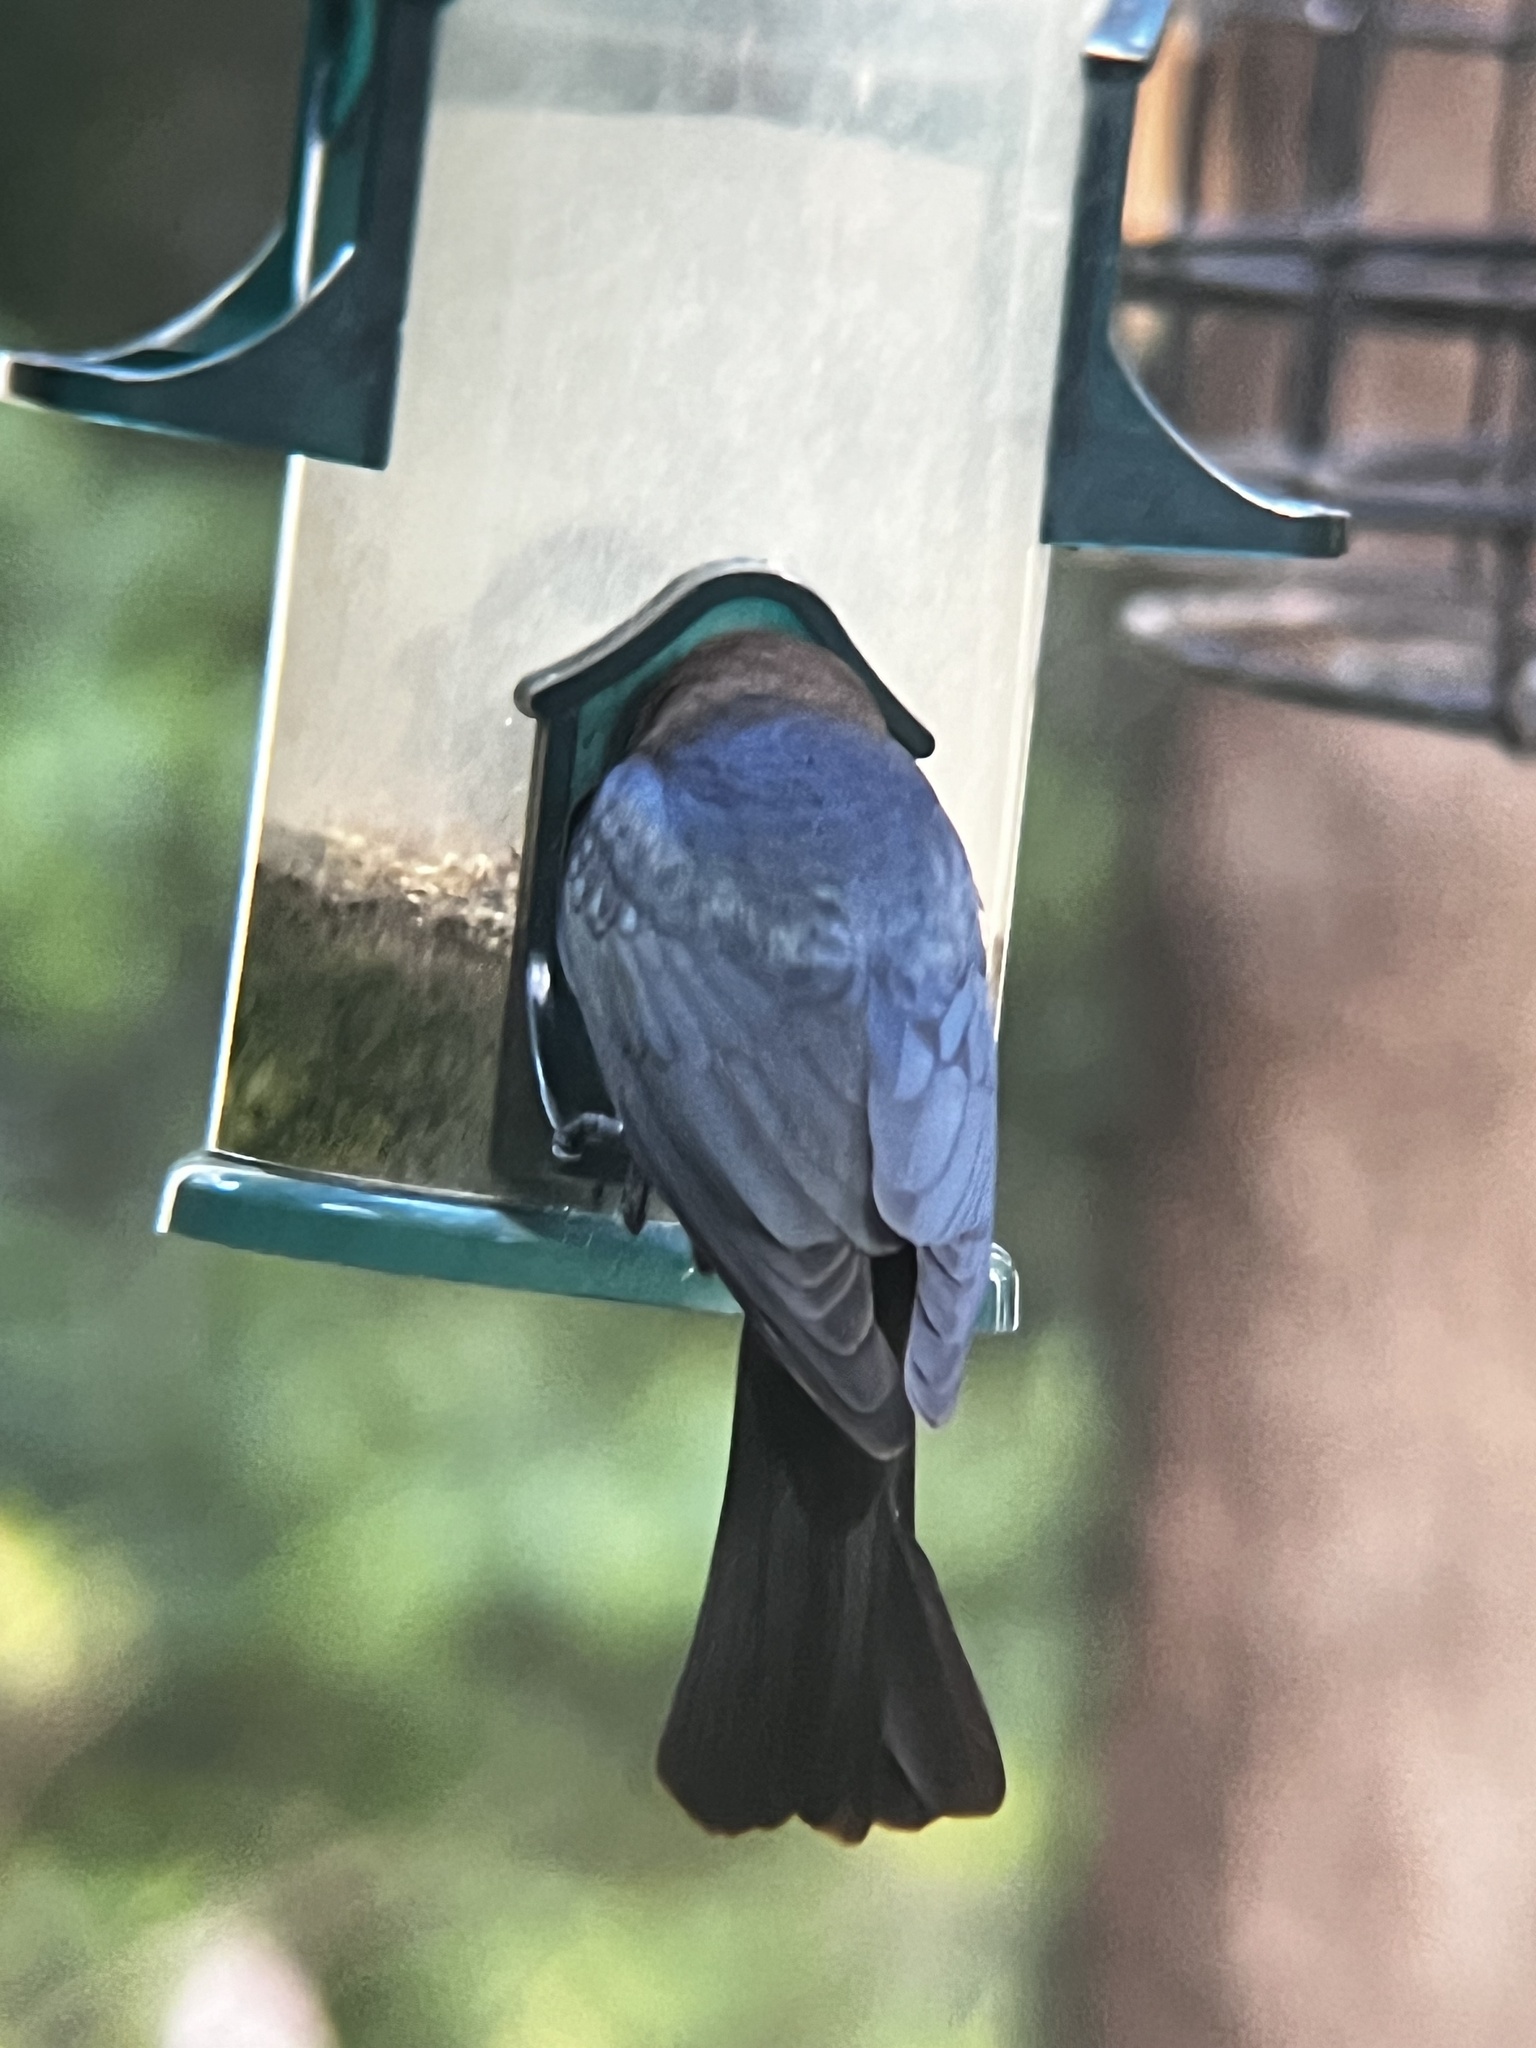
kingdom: Animalia
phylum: Chordata
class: Aves
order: Passeriformes
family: Icteridae
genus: Molothrus
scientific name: Molothrus ater
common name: Brown-headed cowbird
